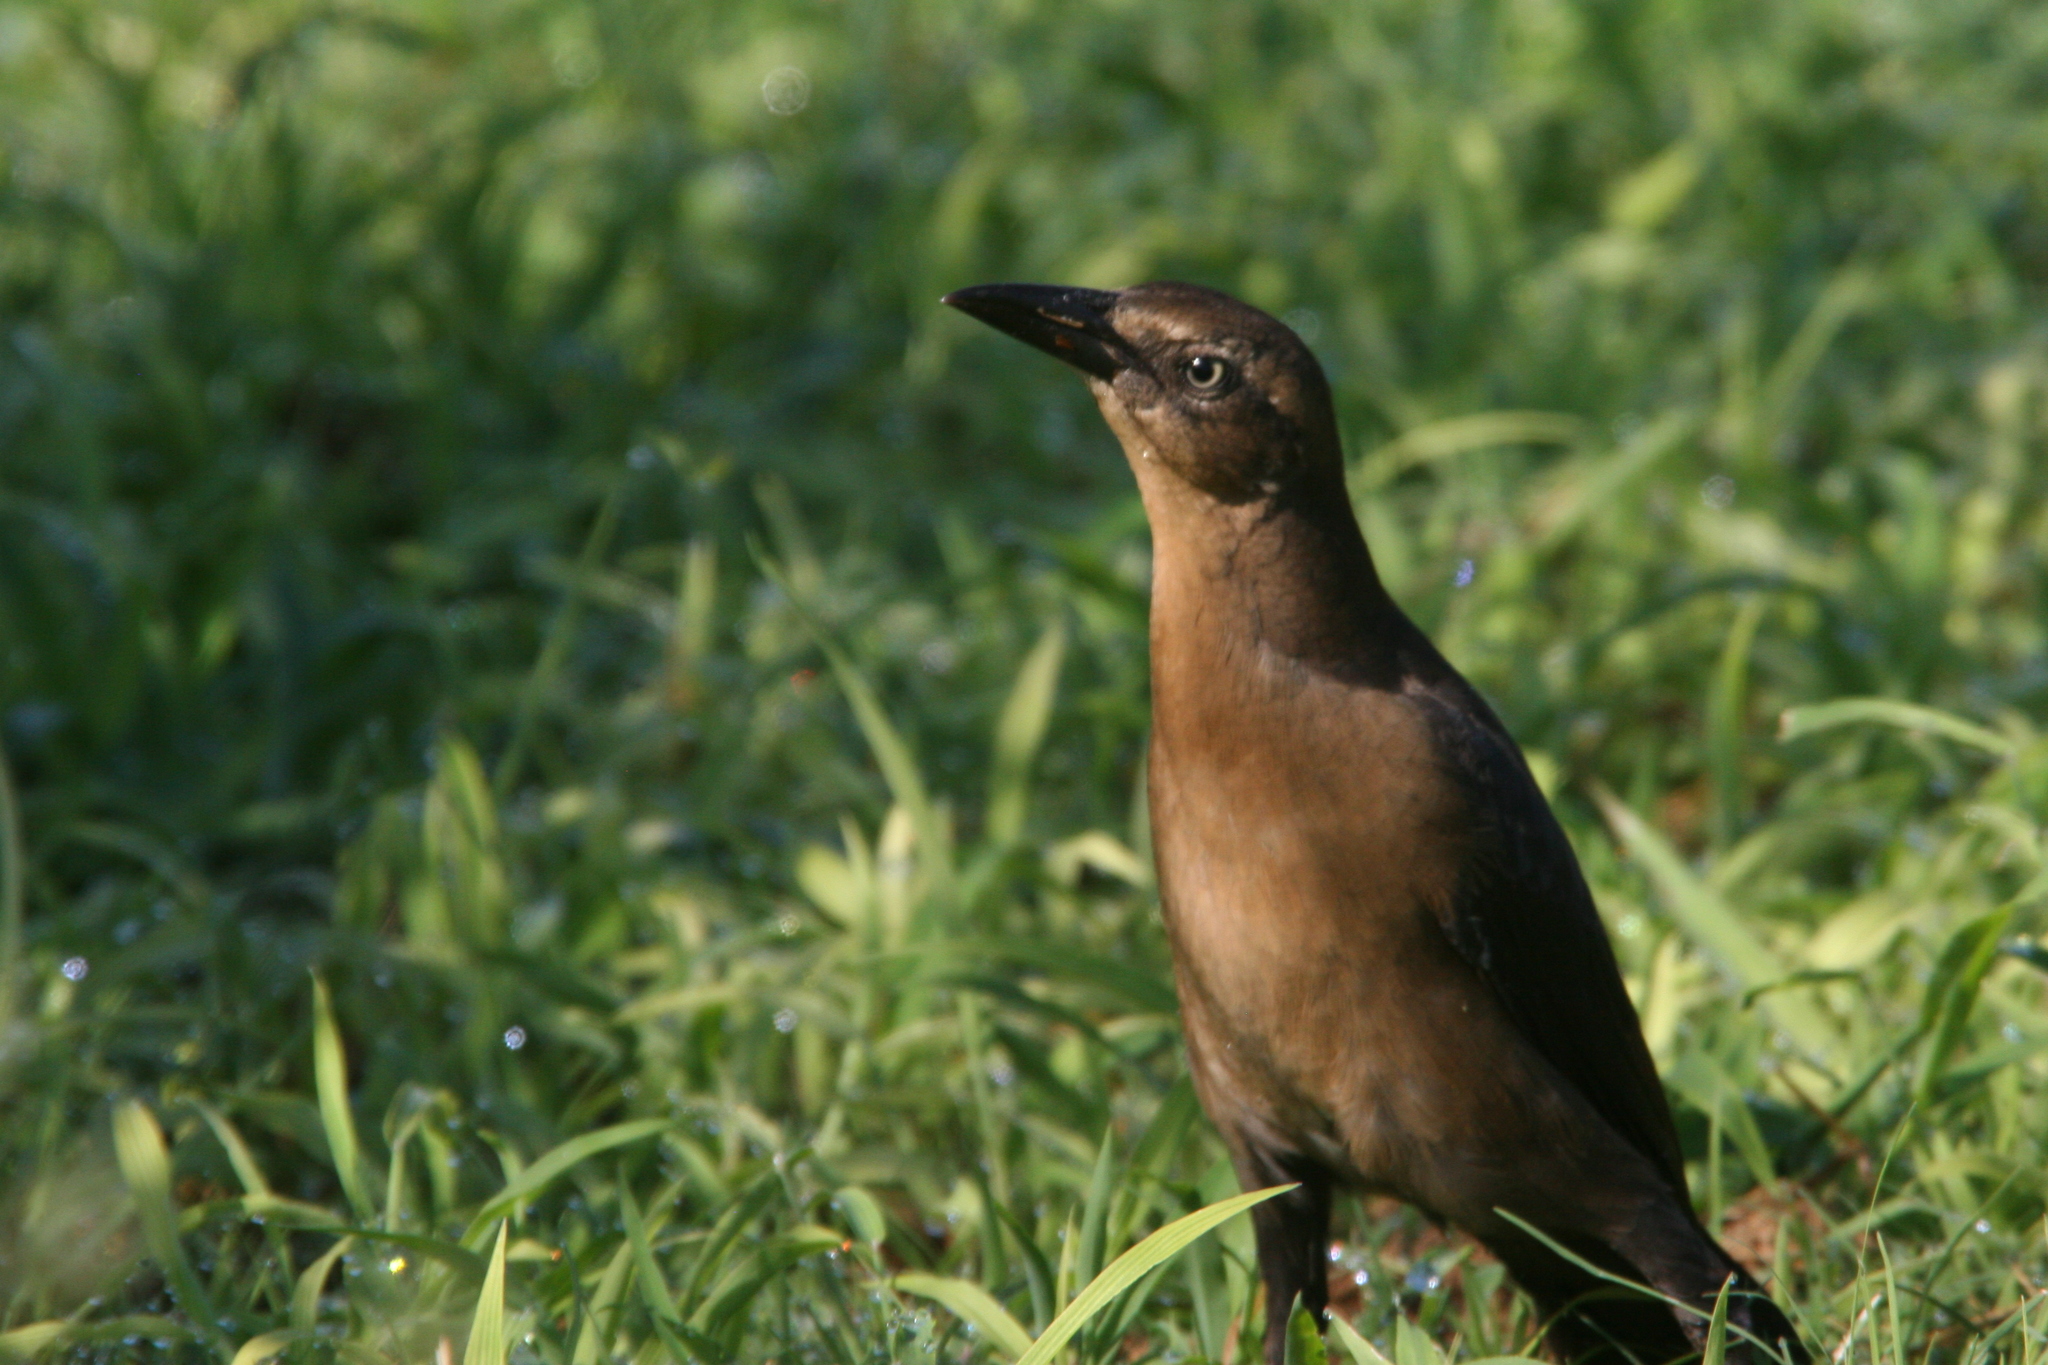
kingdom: Animalia
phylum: Chordata
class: Aves
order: Passeriformes
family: Icteridae
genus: Quiscalus
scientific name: Quiscalus mexicanus
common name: Great-tailed grackle
